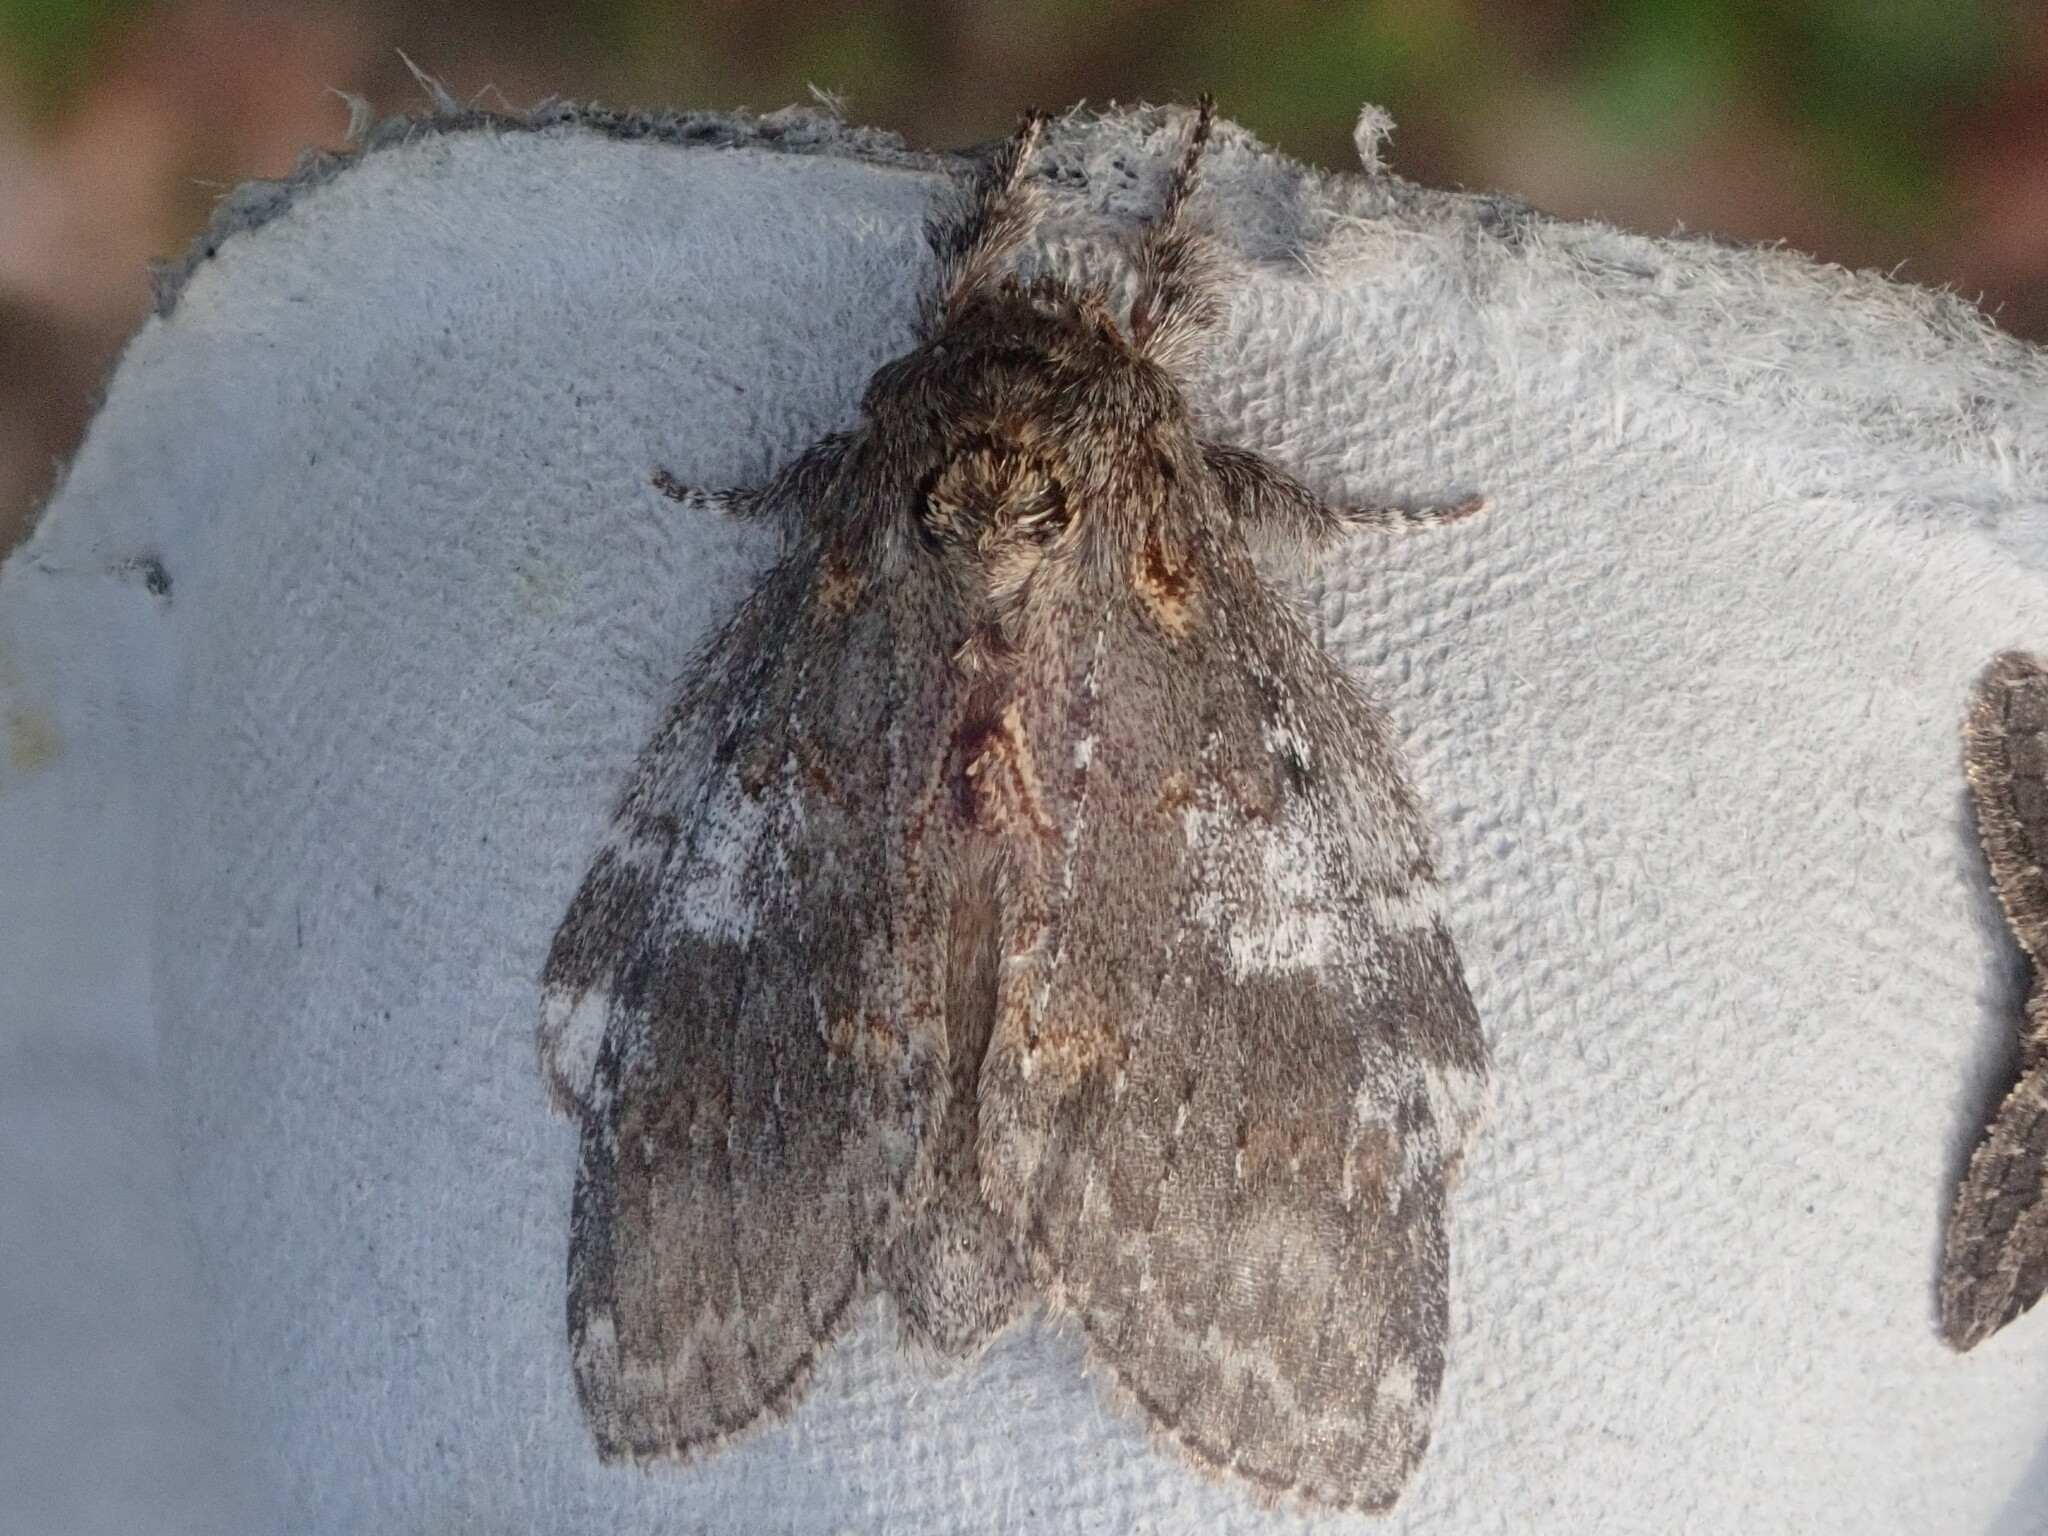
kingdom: Animalia
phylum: Arthropoda
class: Insecta
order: Lepidoptera
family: Notodontidae
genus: Peridea
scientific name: Peridea angulosa
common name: Angulose prominent
